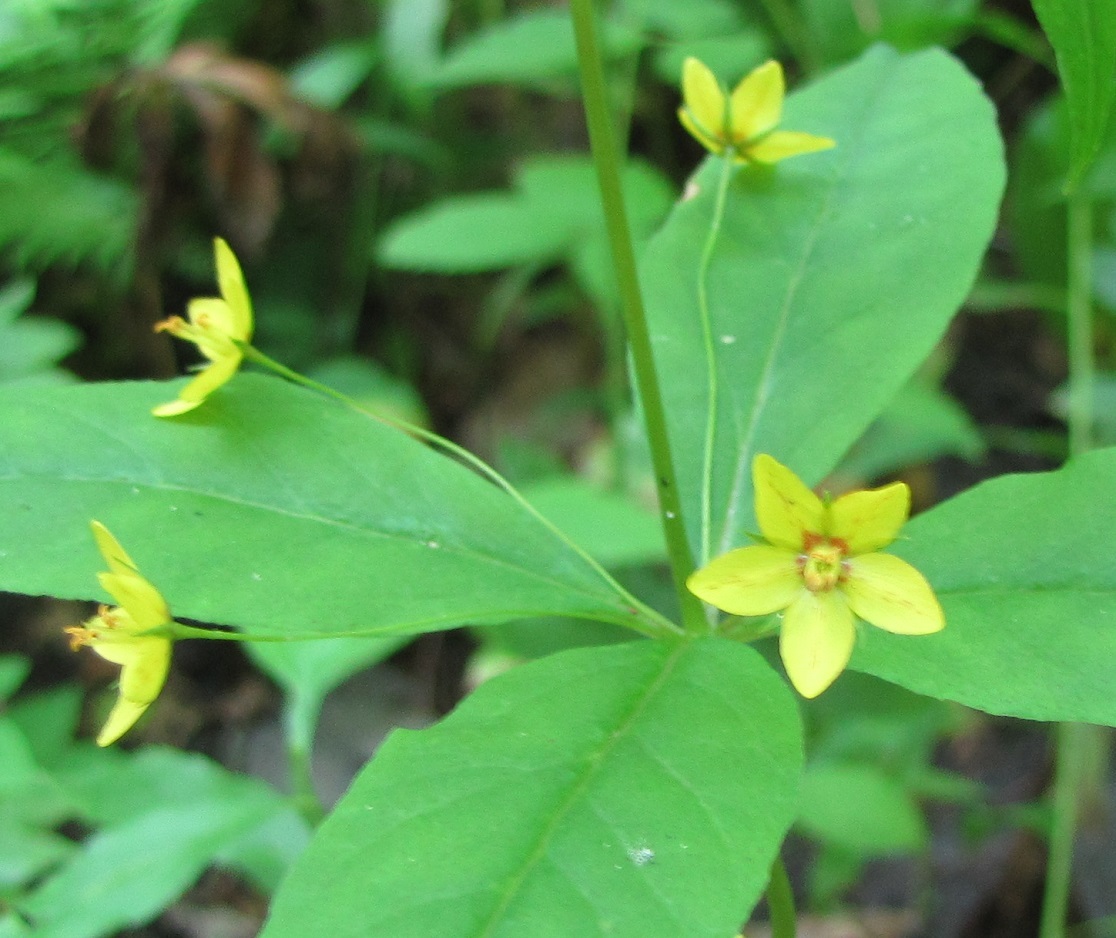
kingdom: Plantae
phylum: Tracheophyta
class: Magnoliopsida
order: Ericales
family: Primulaceae
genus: Lysimachia
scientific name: Lysimachia quadrifolia
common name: Whorled loosestrife
